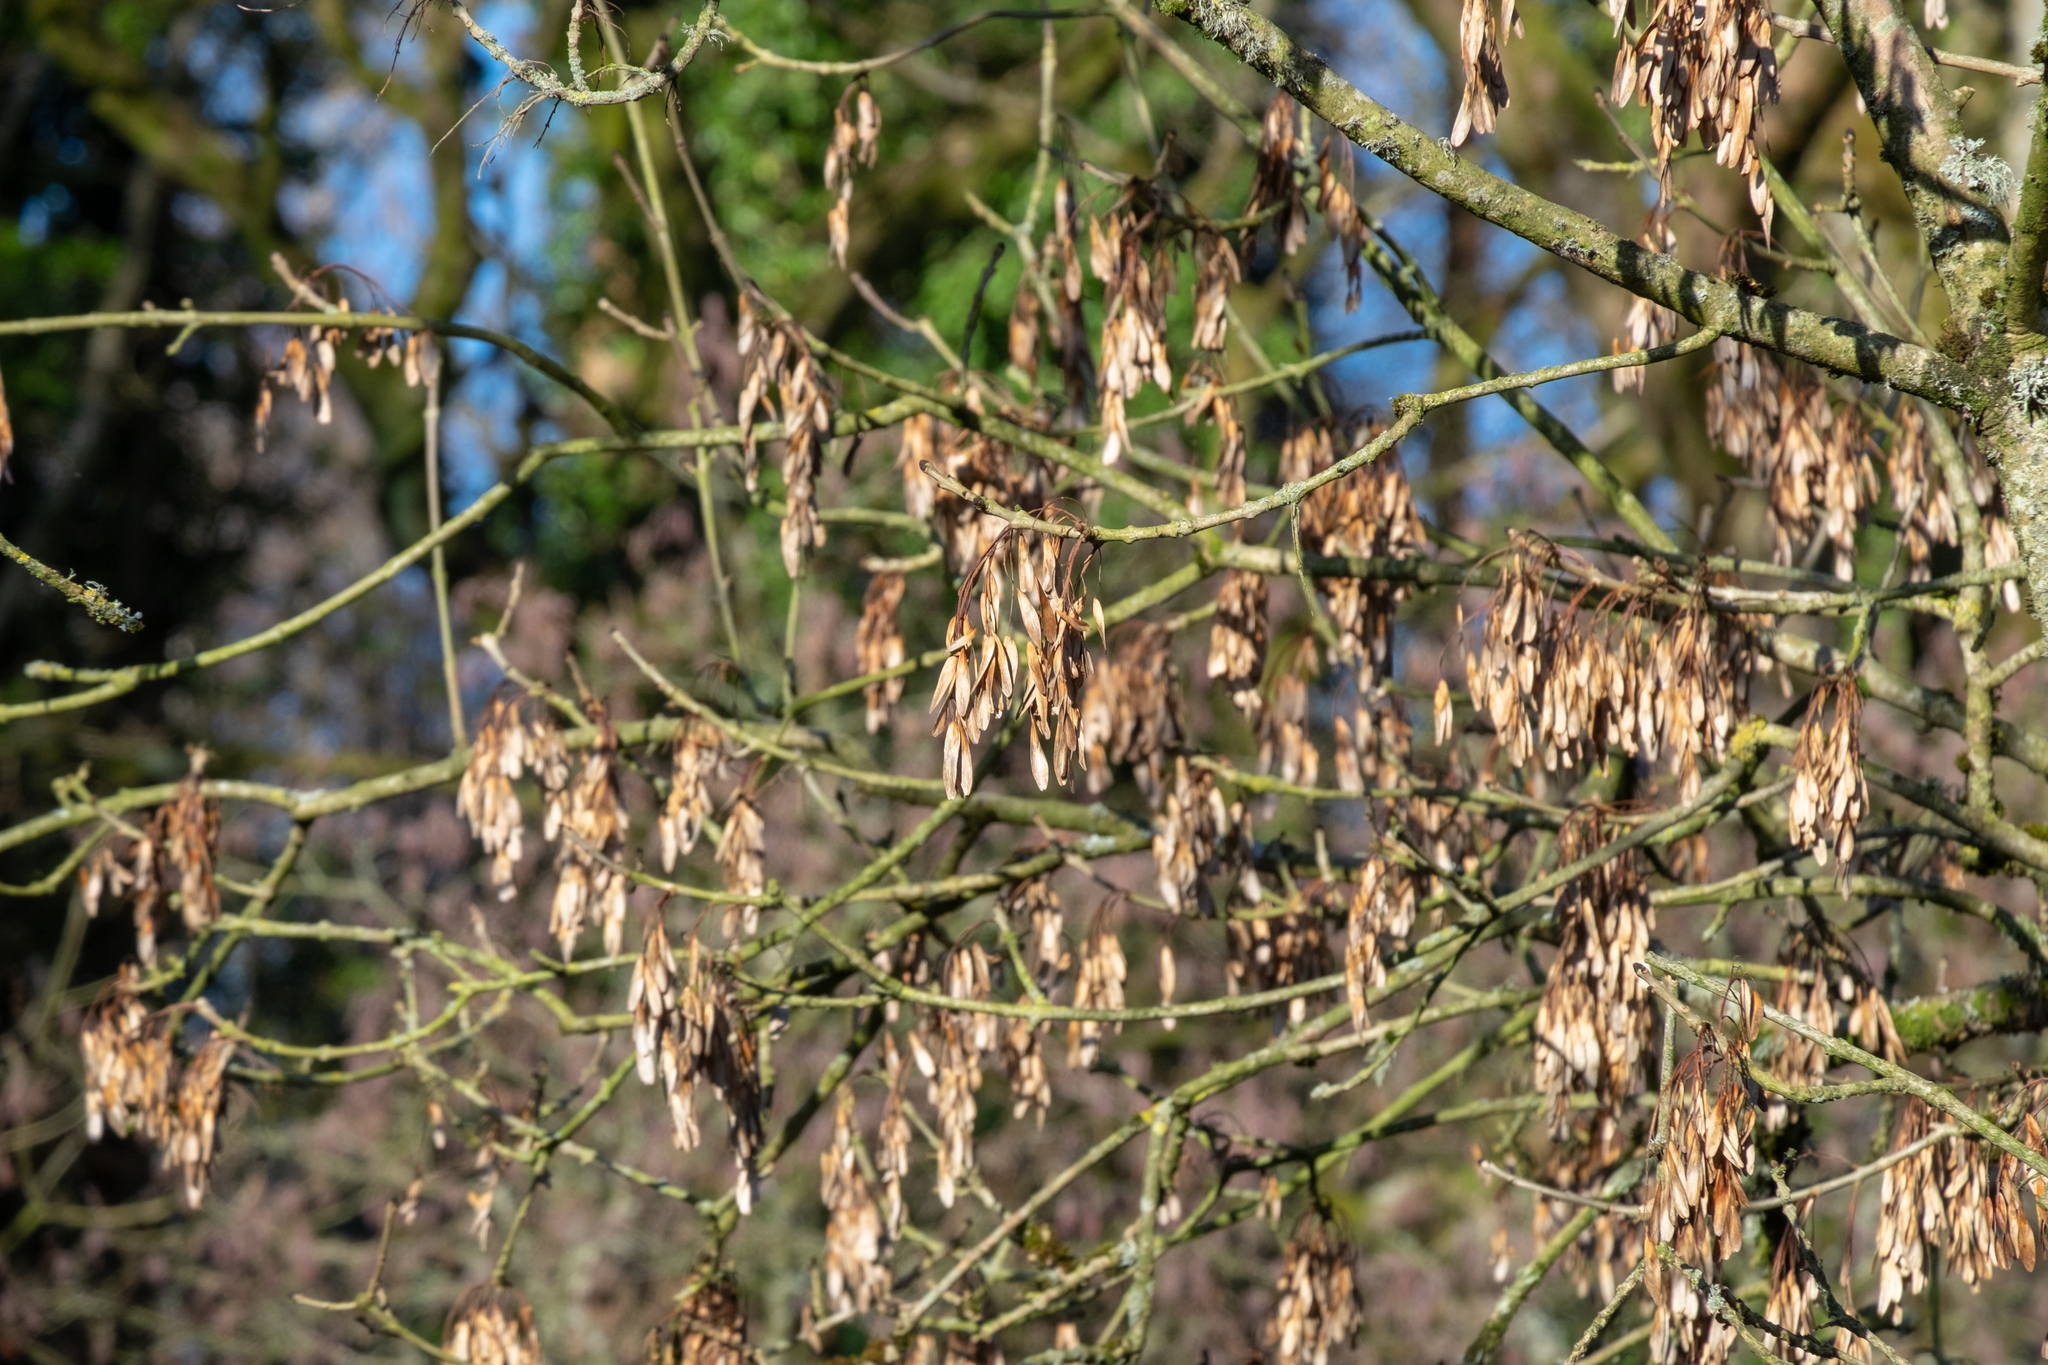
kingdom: Plantae
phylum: Tracheophyta
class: Magnoliopsida
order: Lamiales
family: Oleaceae
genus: Fraxinus
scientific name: Fraxinus excelsior
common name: European ash
